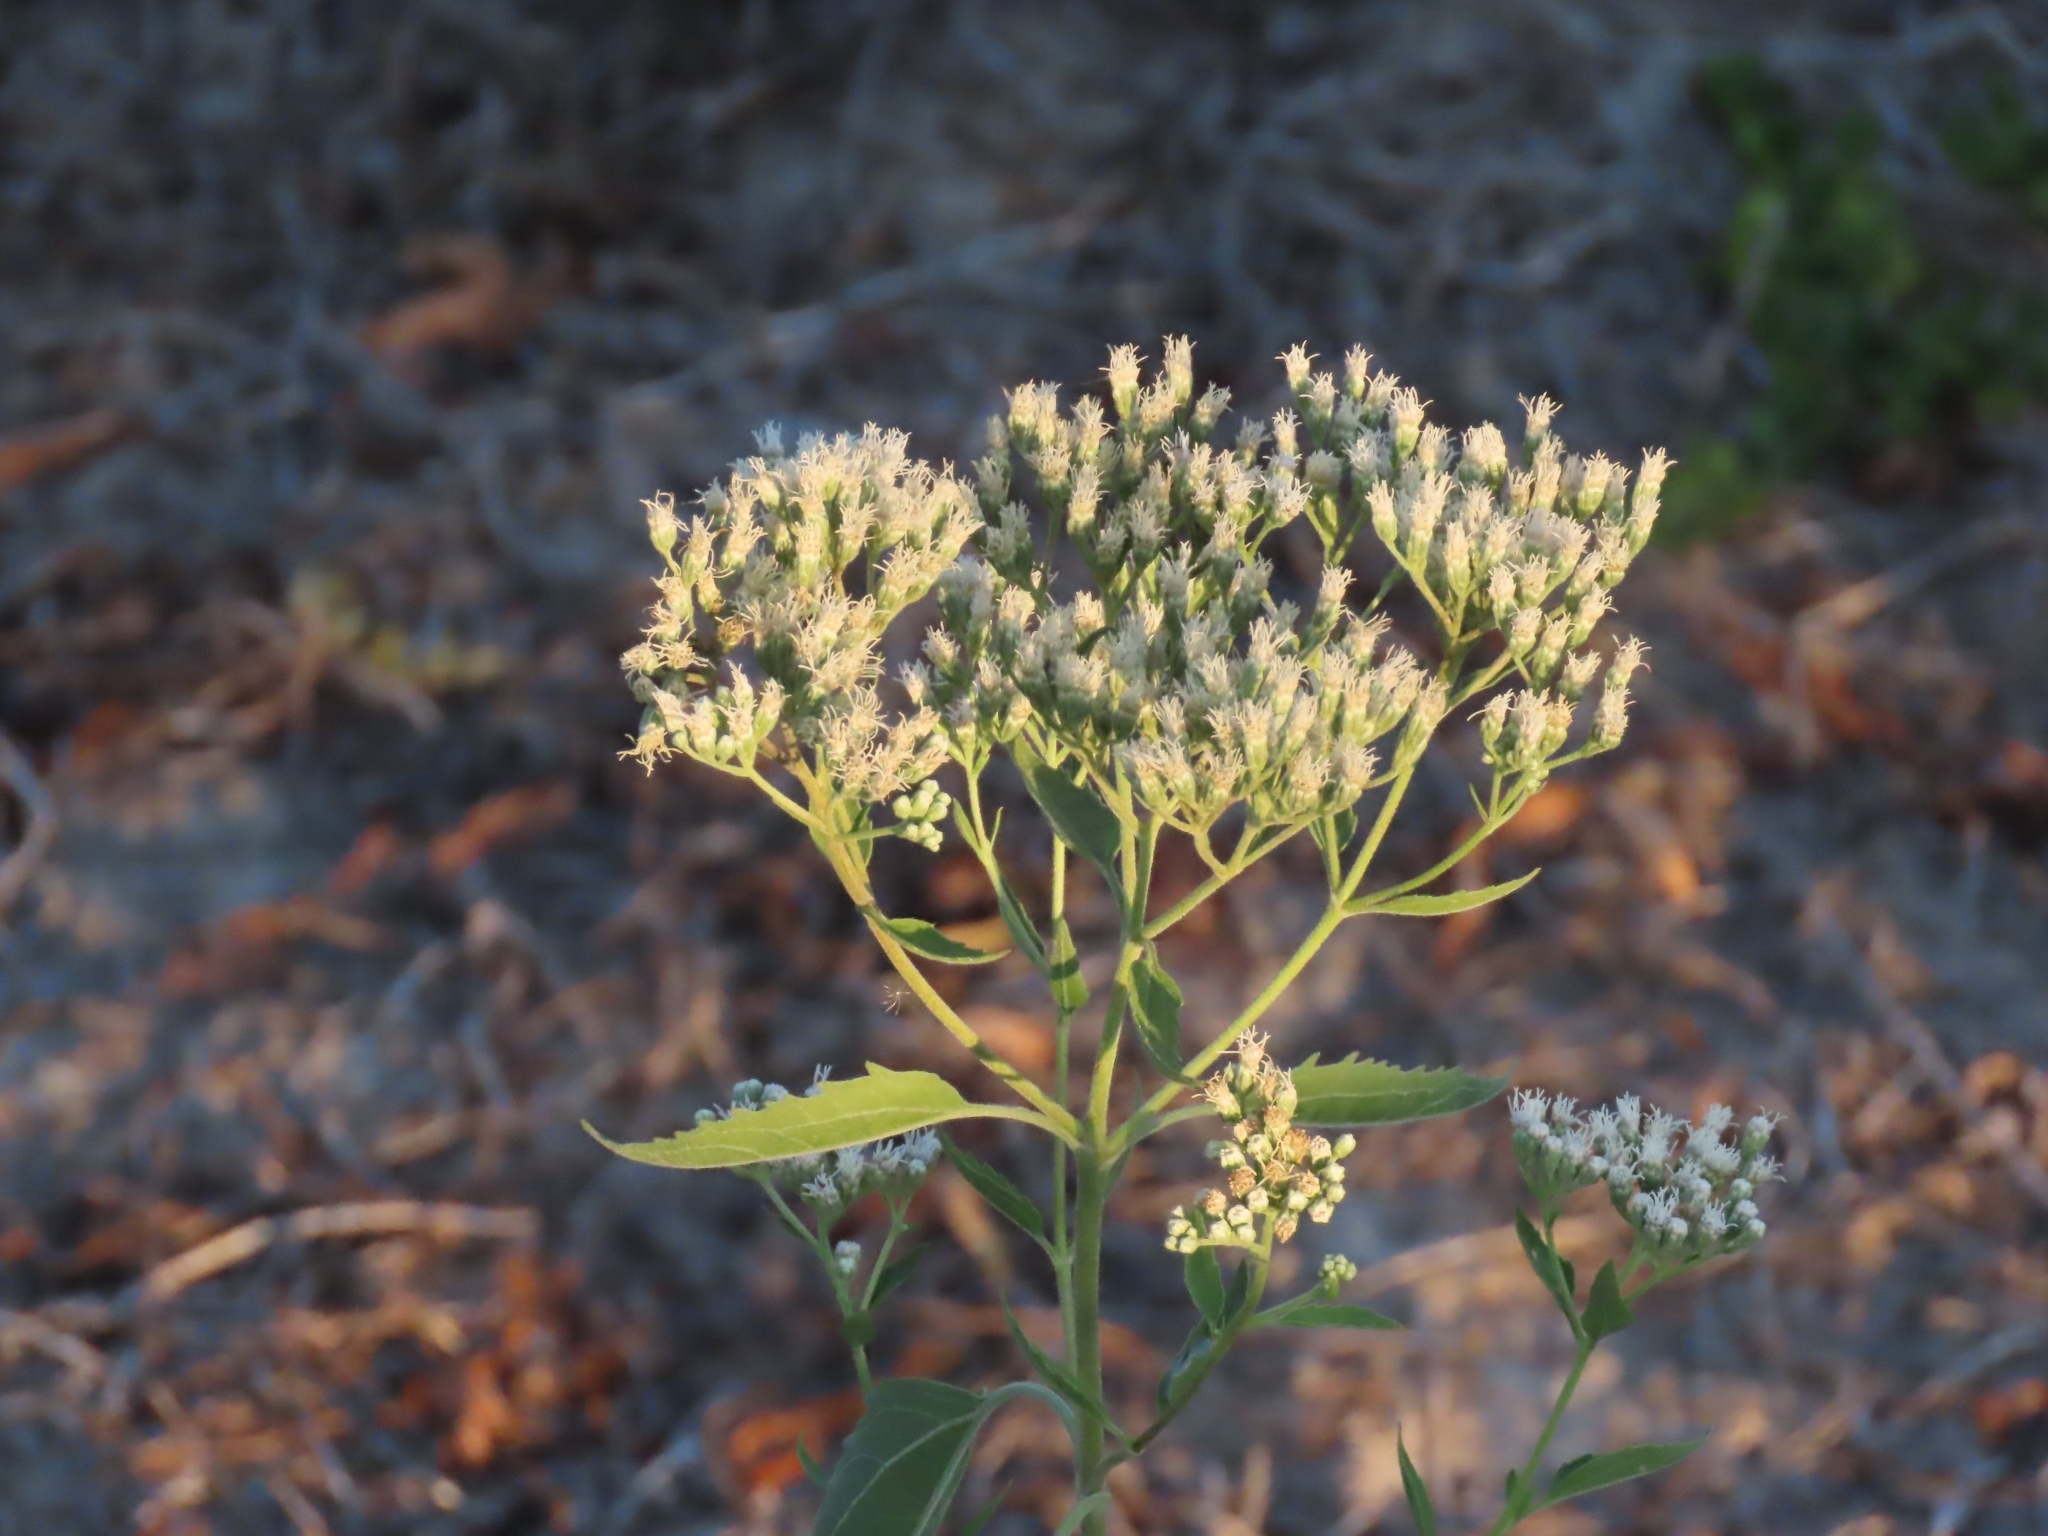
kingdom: Plantae
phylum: Tracheophyta
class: Magnoliopsida
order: Asterales
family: Asteraceae
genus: Eupatorium
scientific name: Eupatorium serotinum
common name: Late boneset
